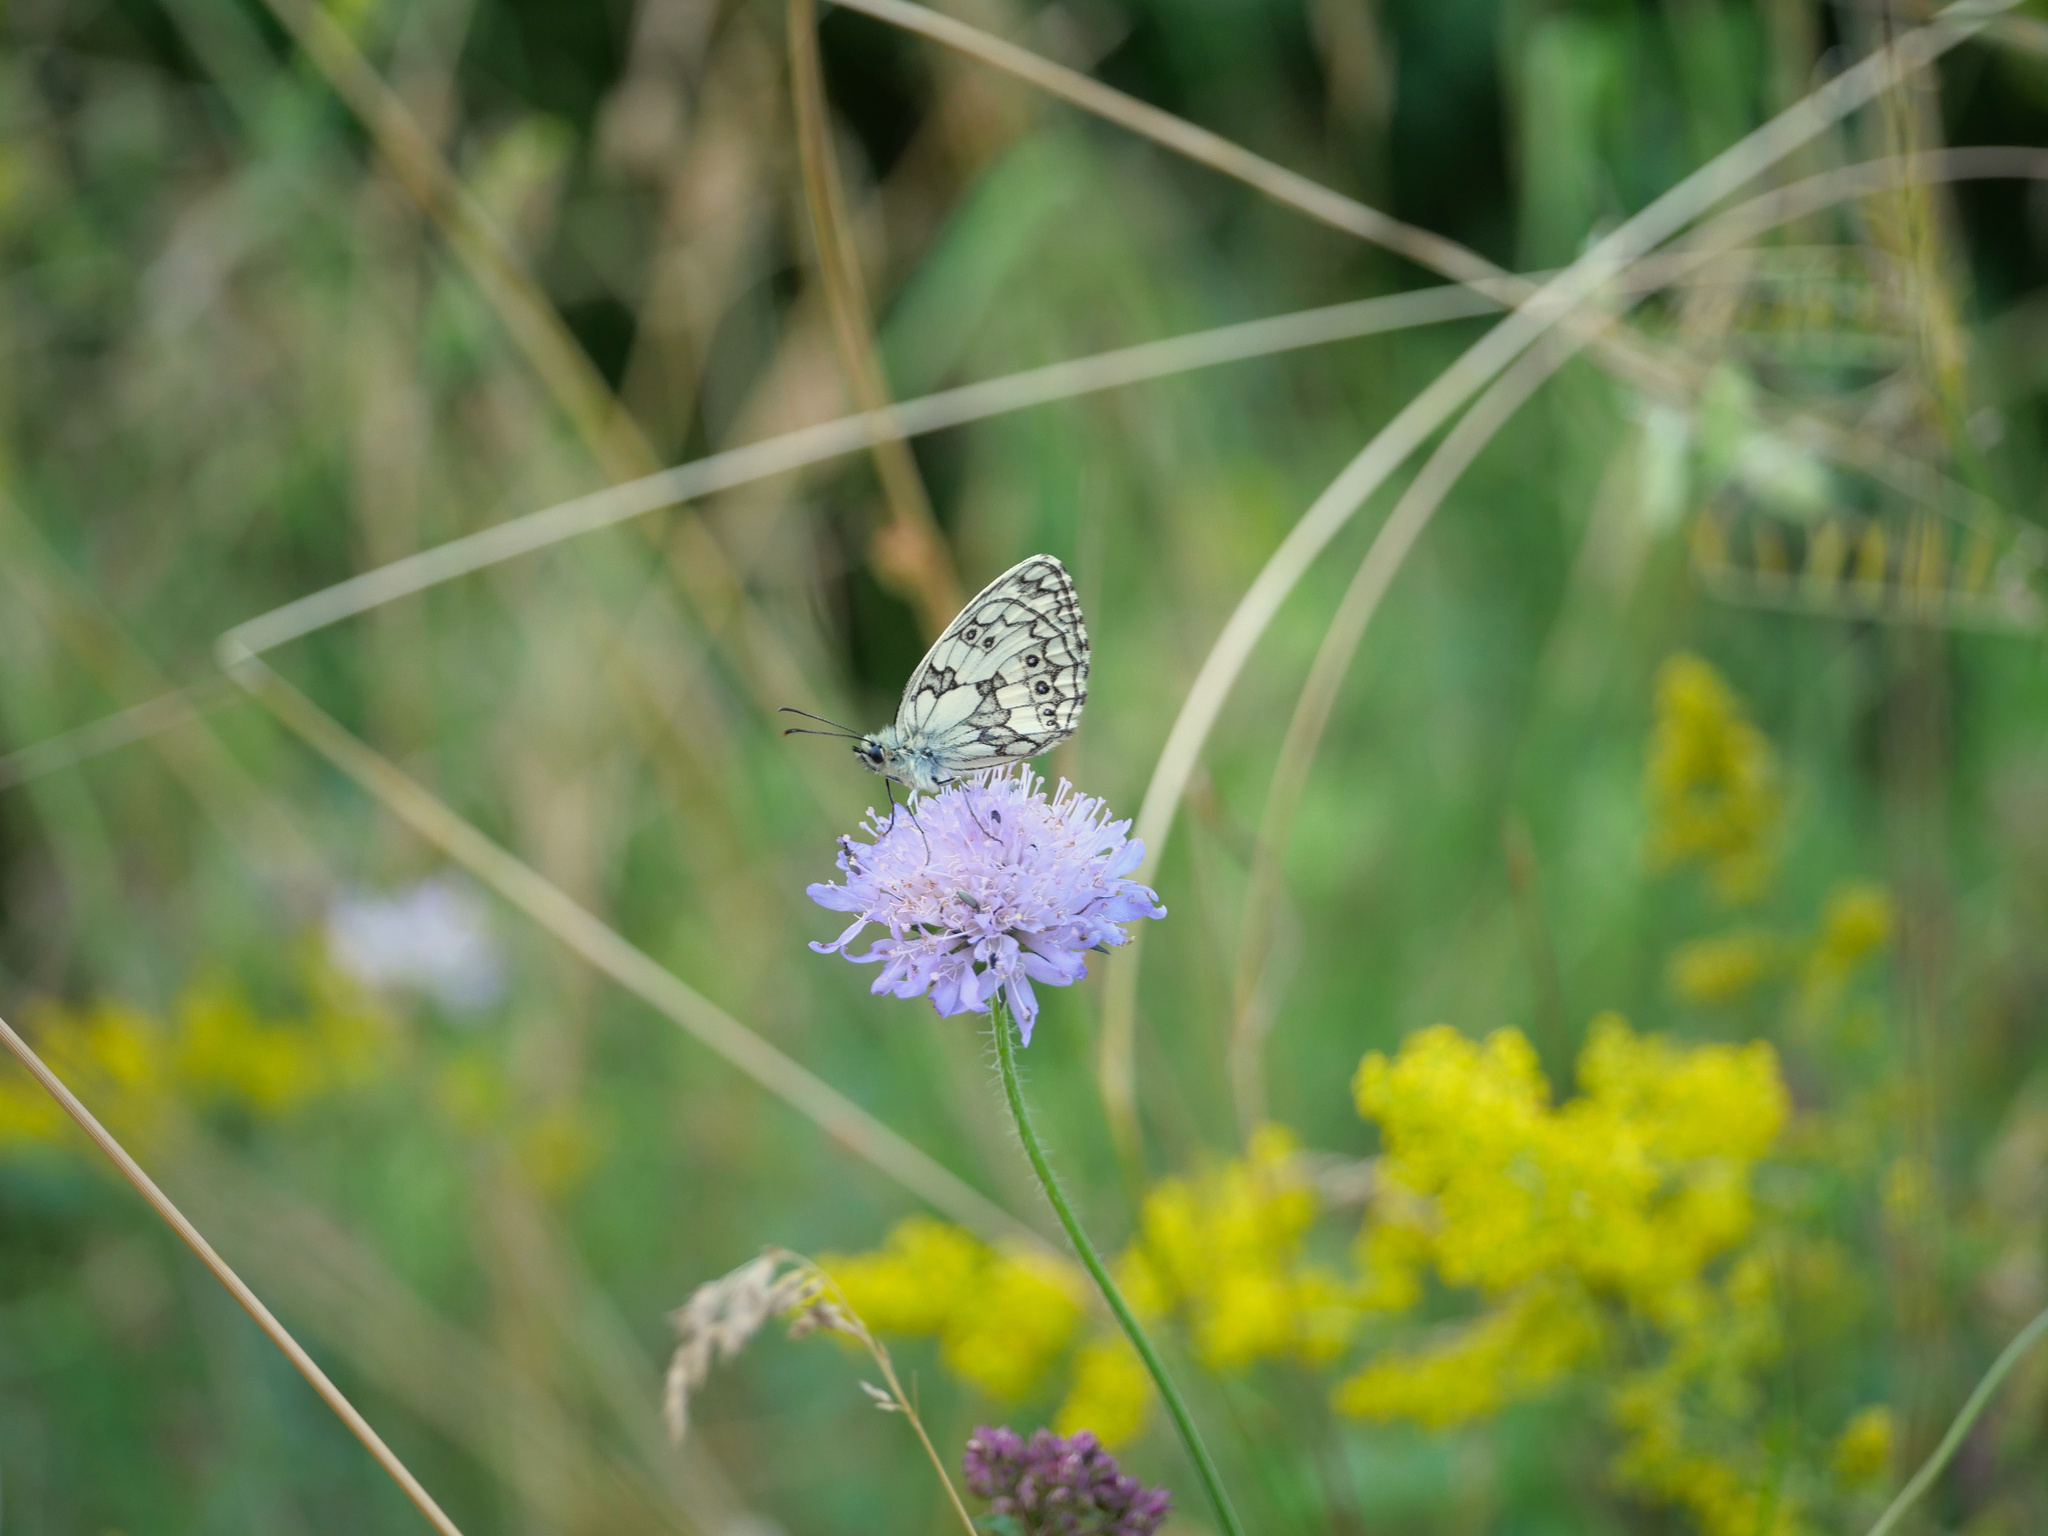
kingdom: Animalia
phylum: Arthropoda
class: Insecta
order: Lepidoptera
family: Nymphalidae
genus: Melanargia
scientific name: Melanargia galathea
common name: Marbled white
